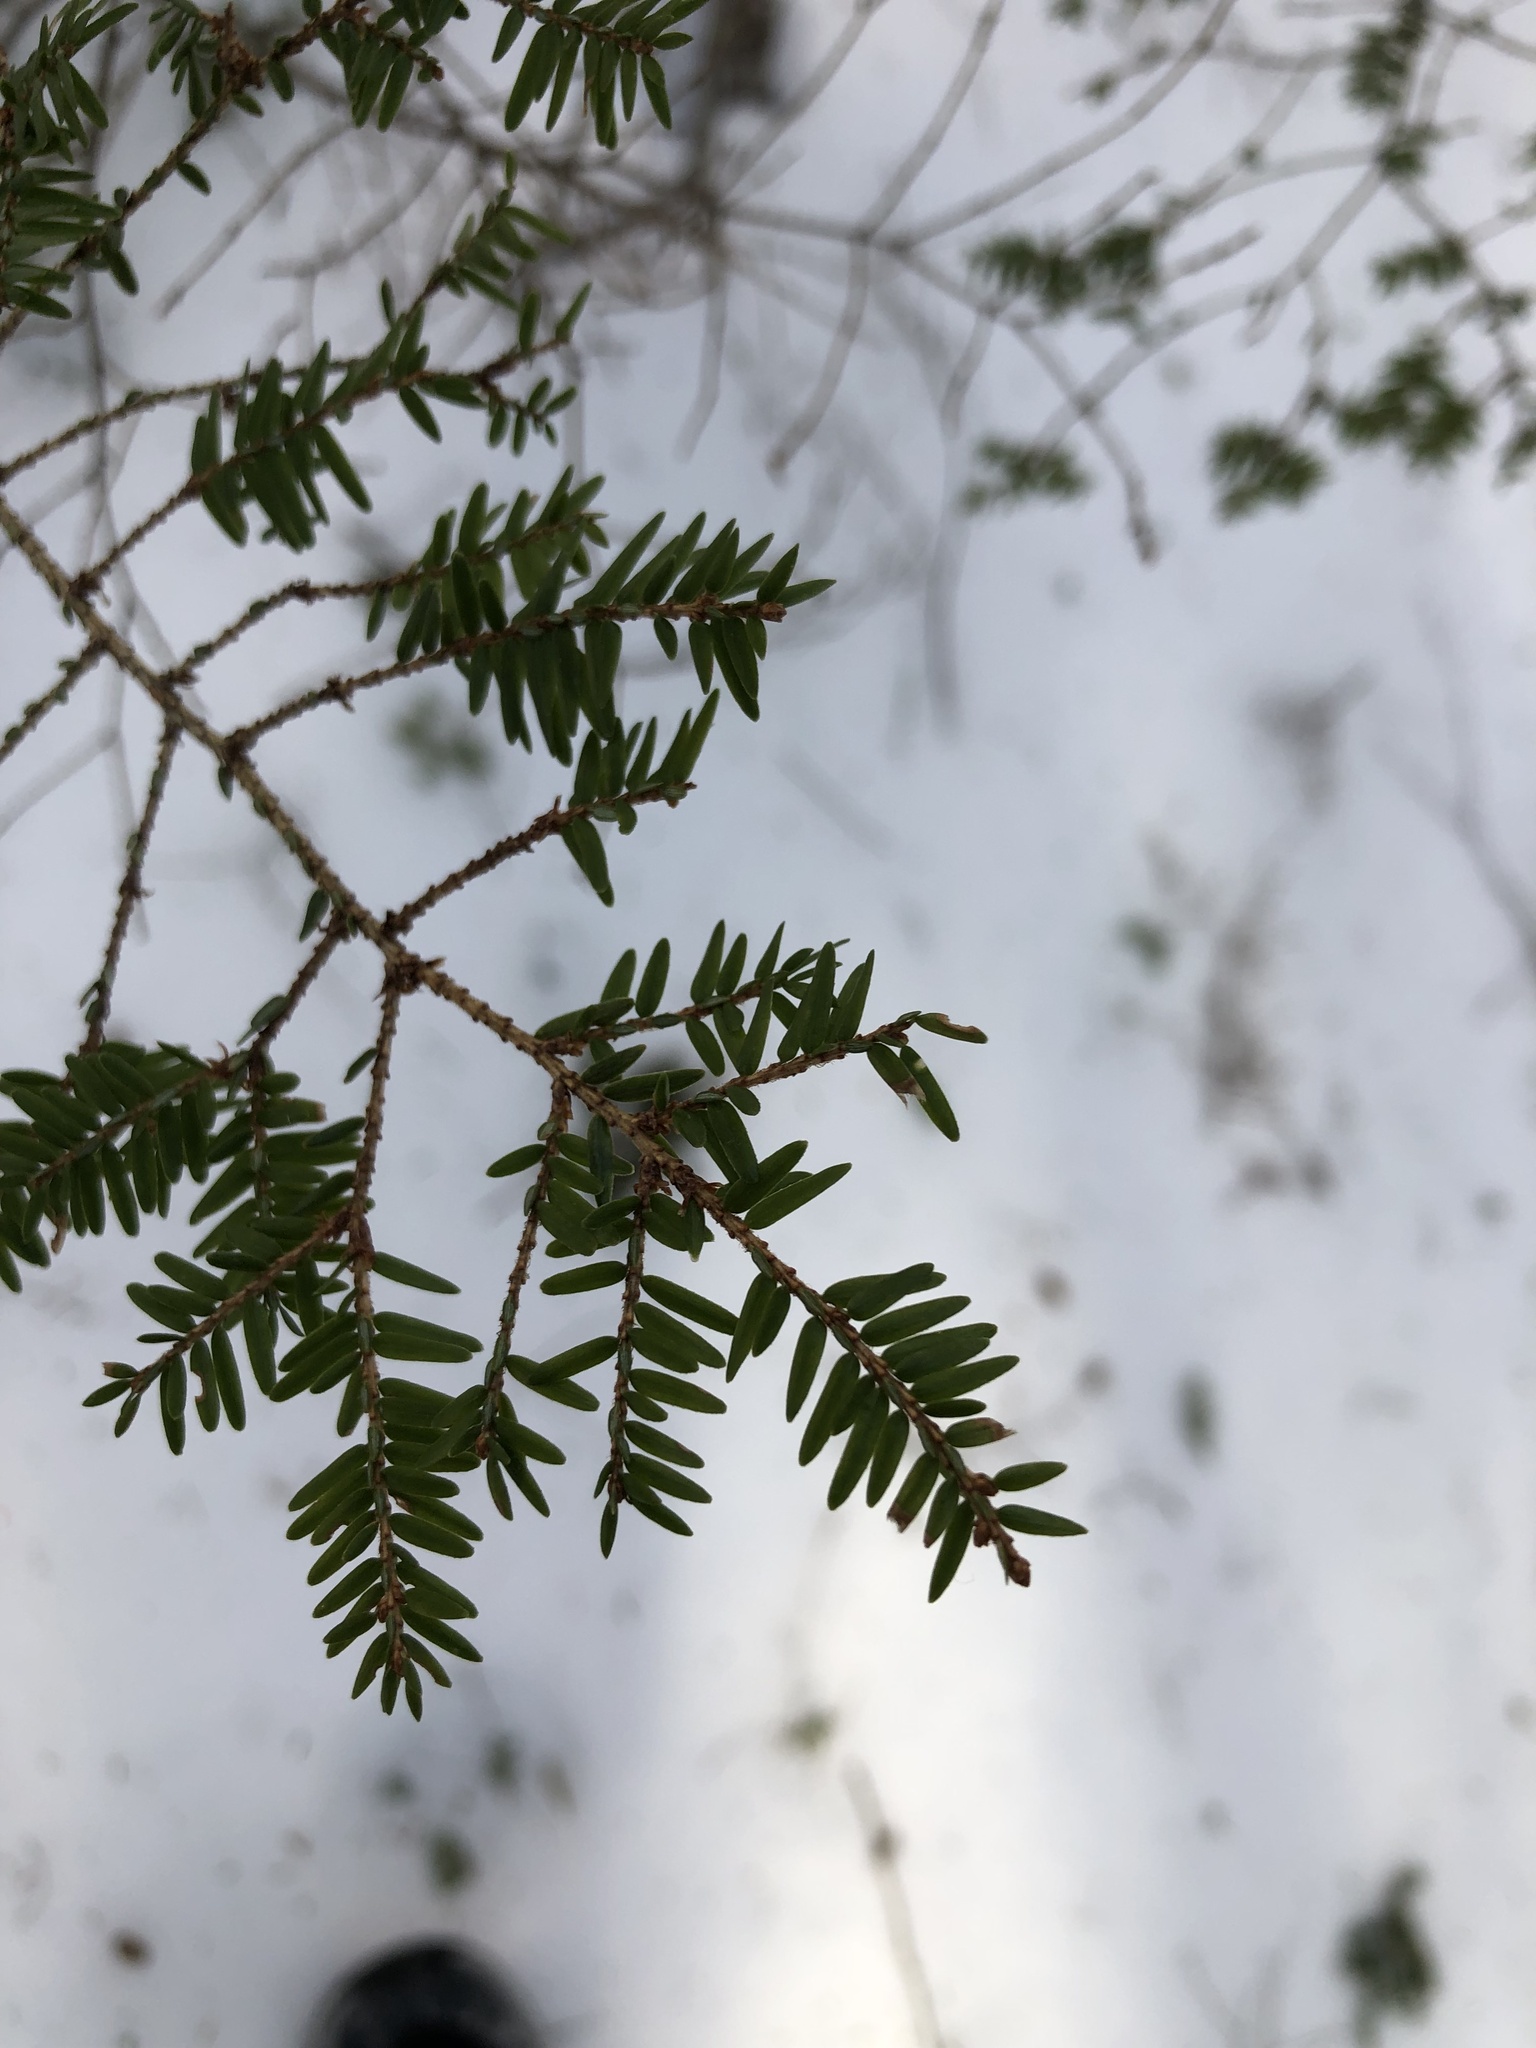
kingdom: Plantae
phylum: Tracheophyta
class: Pinopsida
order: Pinales
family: Pinaceae
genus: Tsuga
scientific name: Tsuga canadensis
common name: Eastern hemlock
